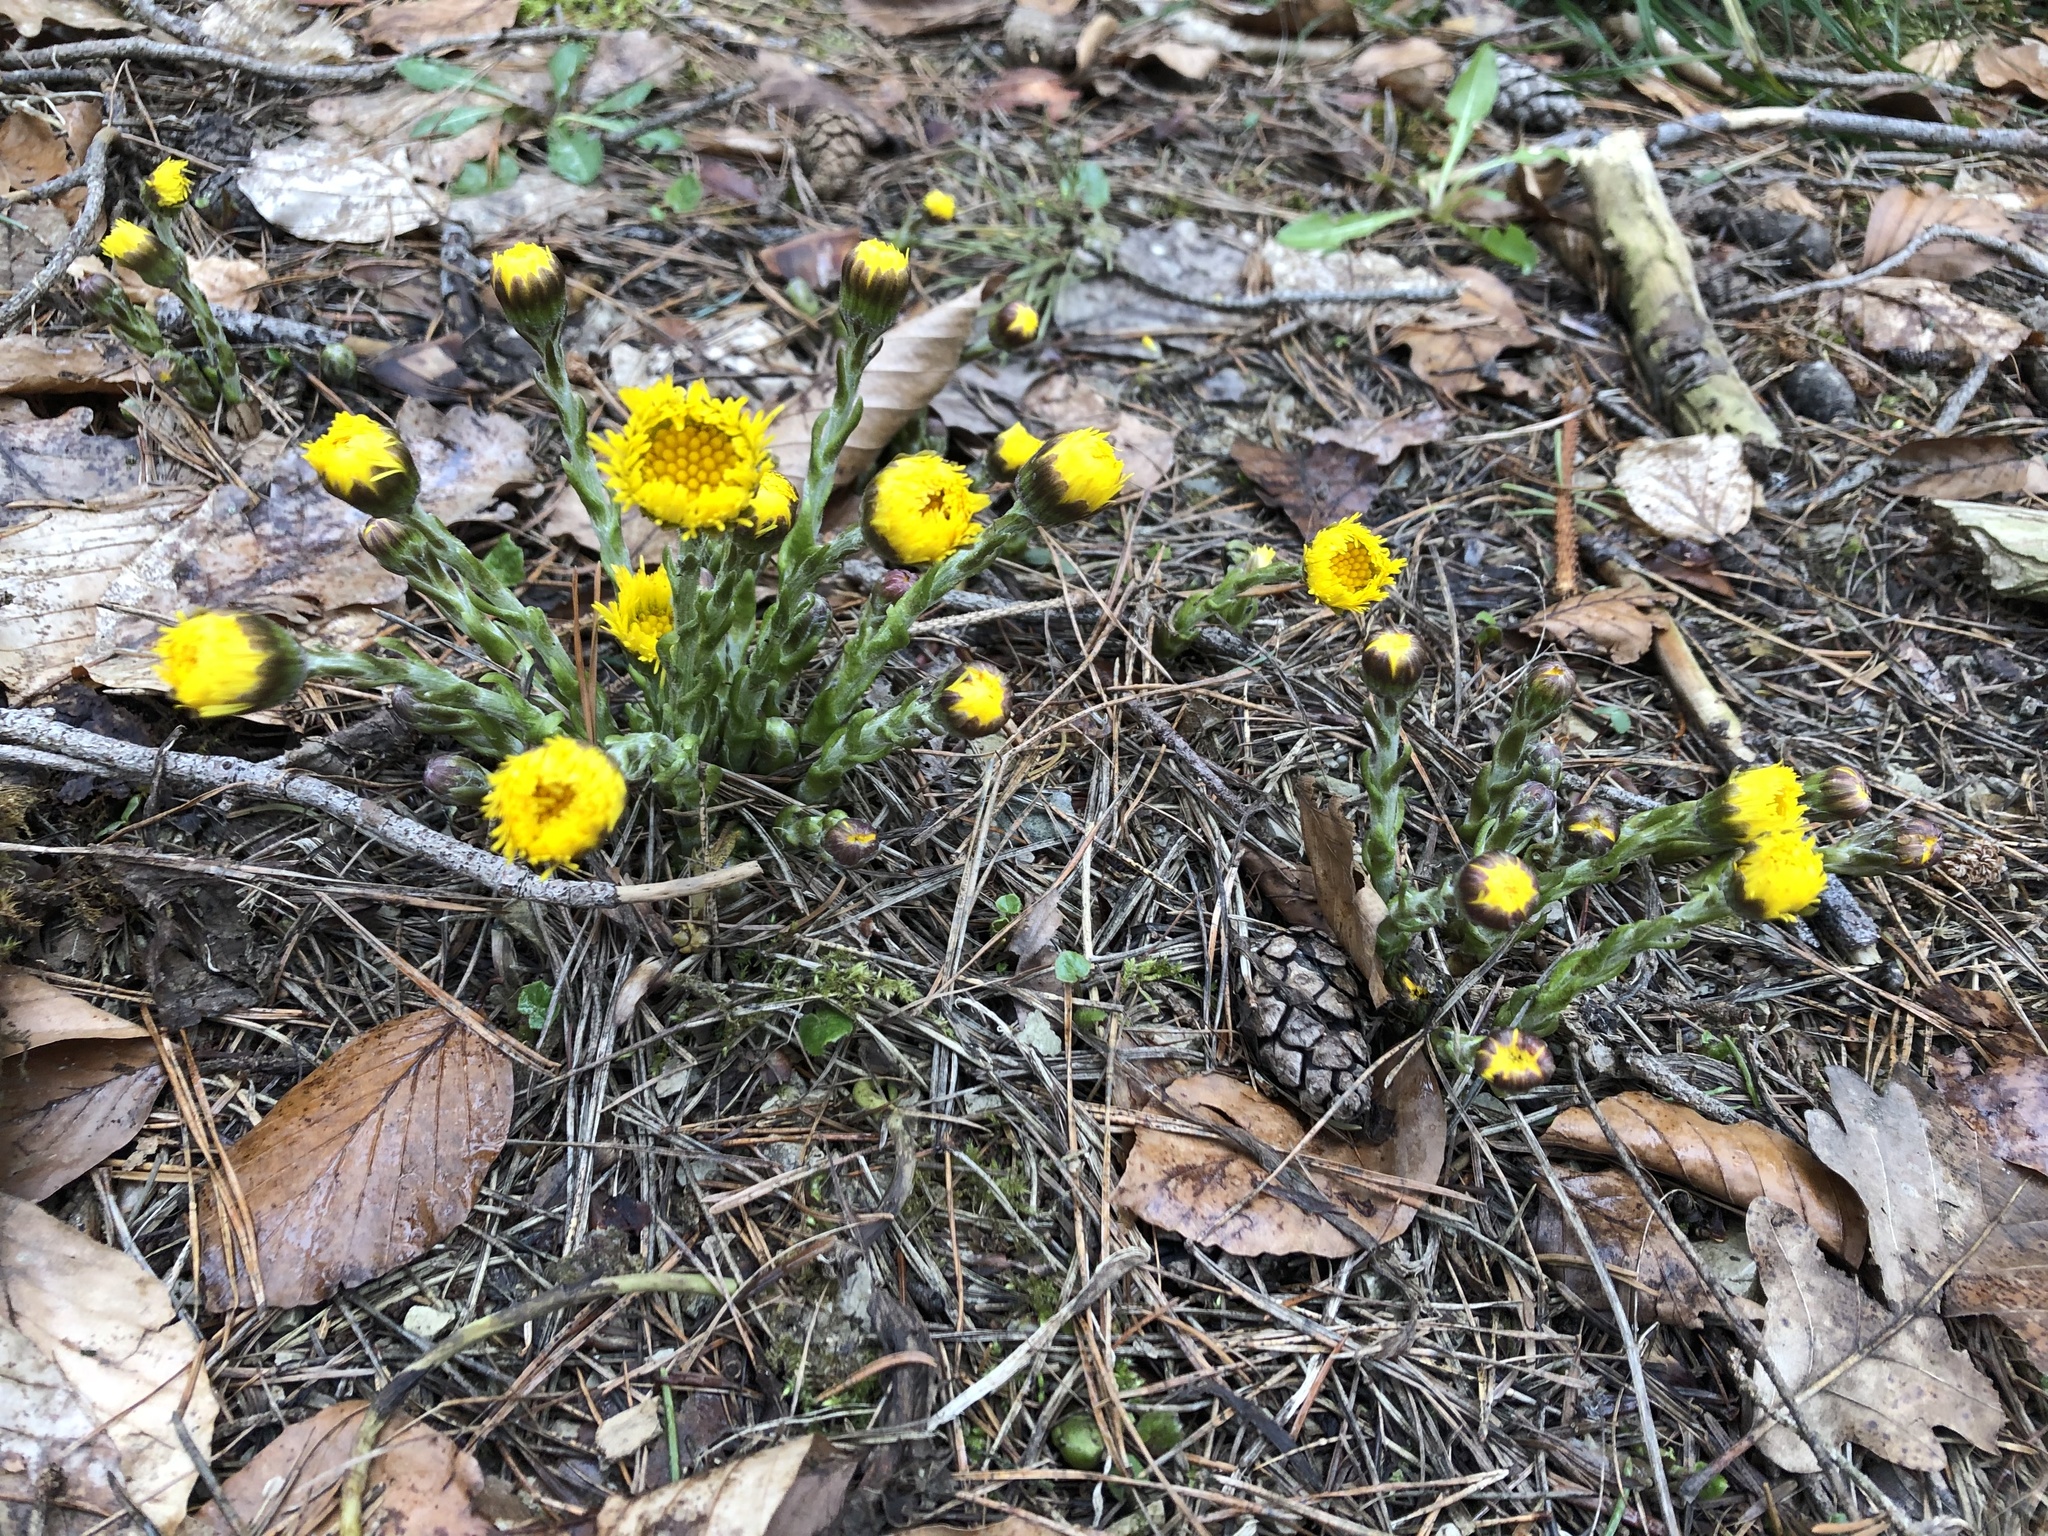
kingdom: Plantae
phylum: Tracheophyta
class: Magnoliopsida
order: Asterales
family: Asteraceae
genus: Tussilago
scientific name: Tussilago farfara
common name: Coltsfoot
